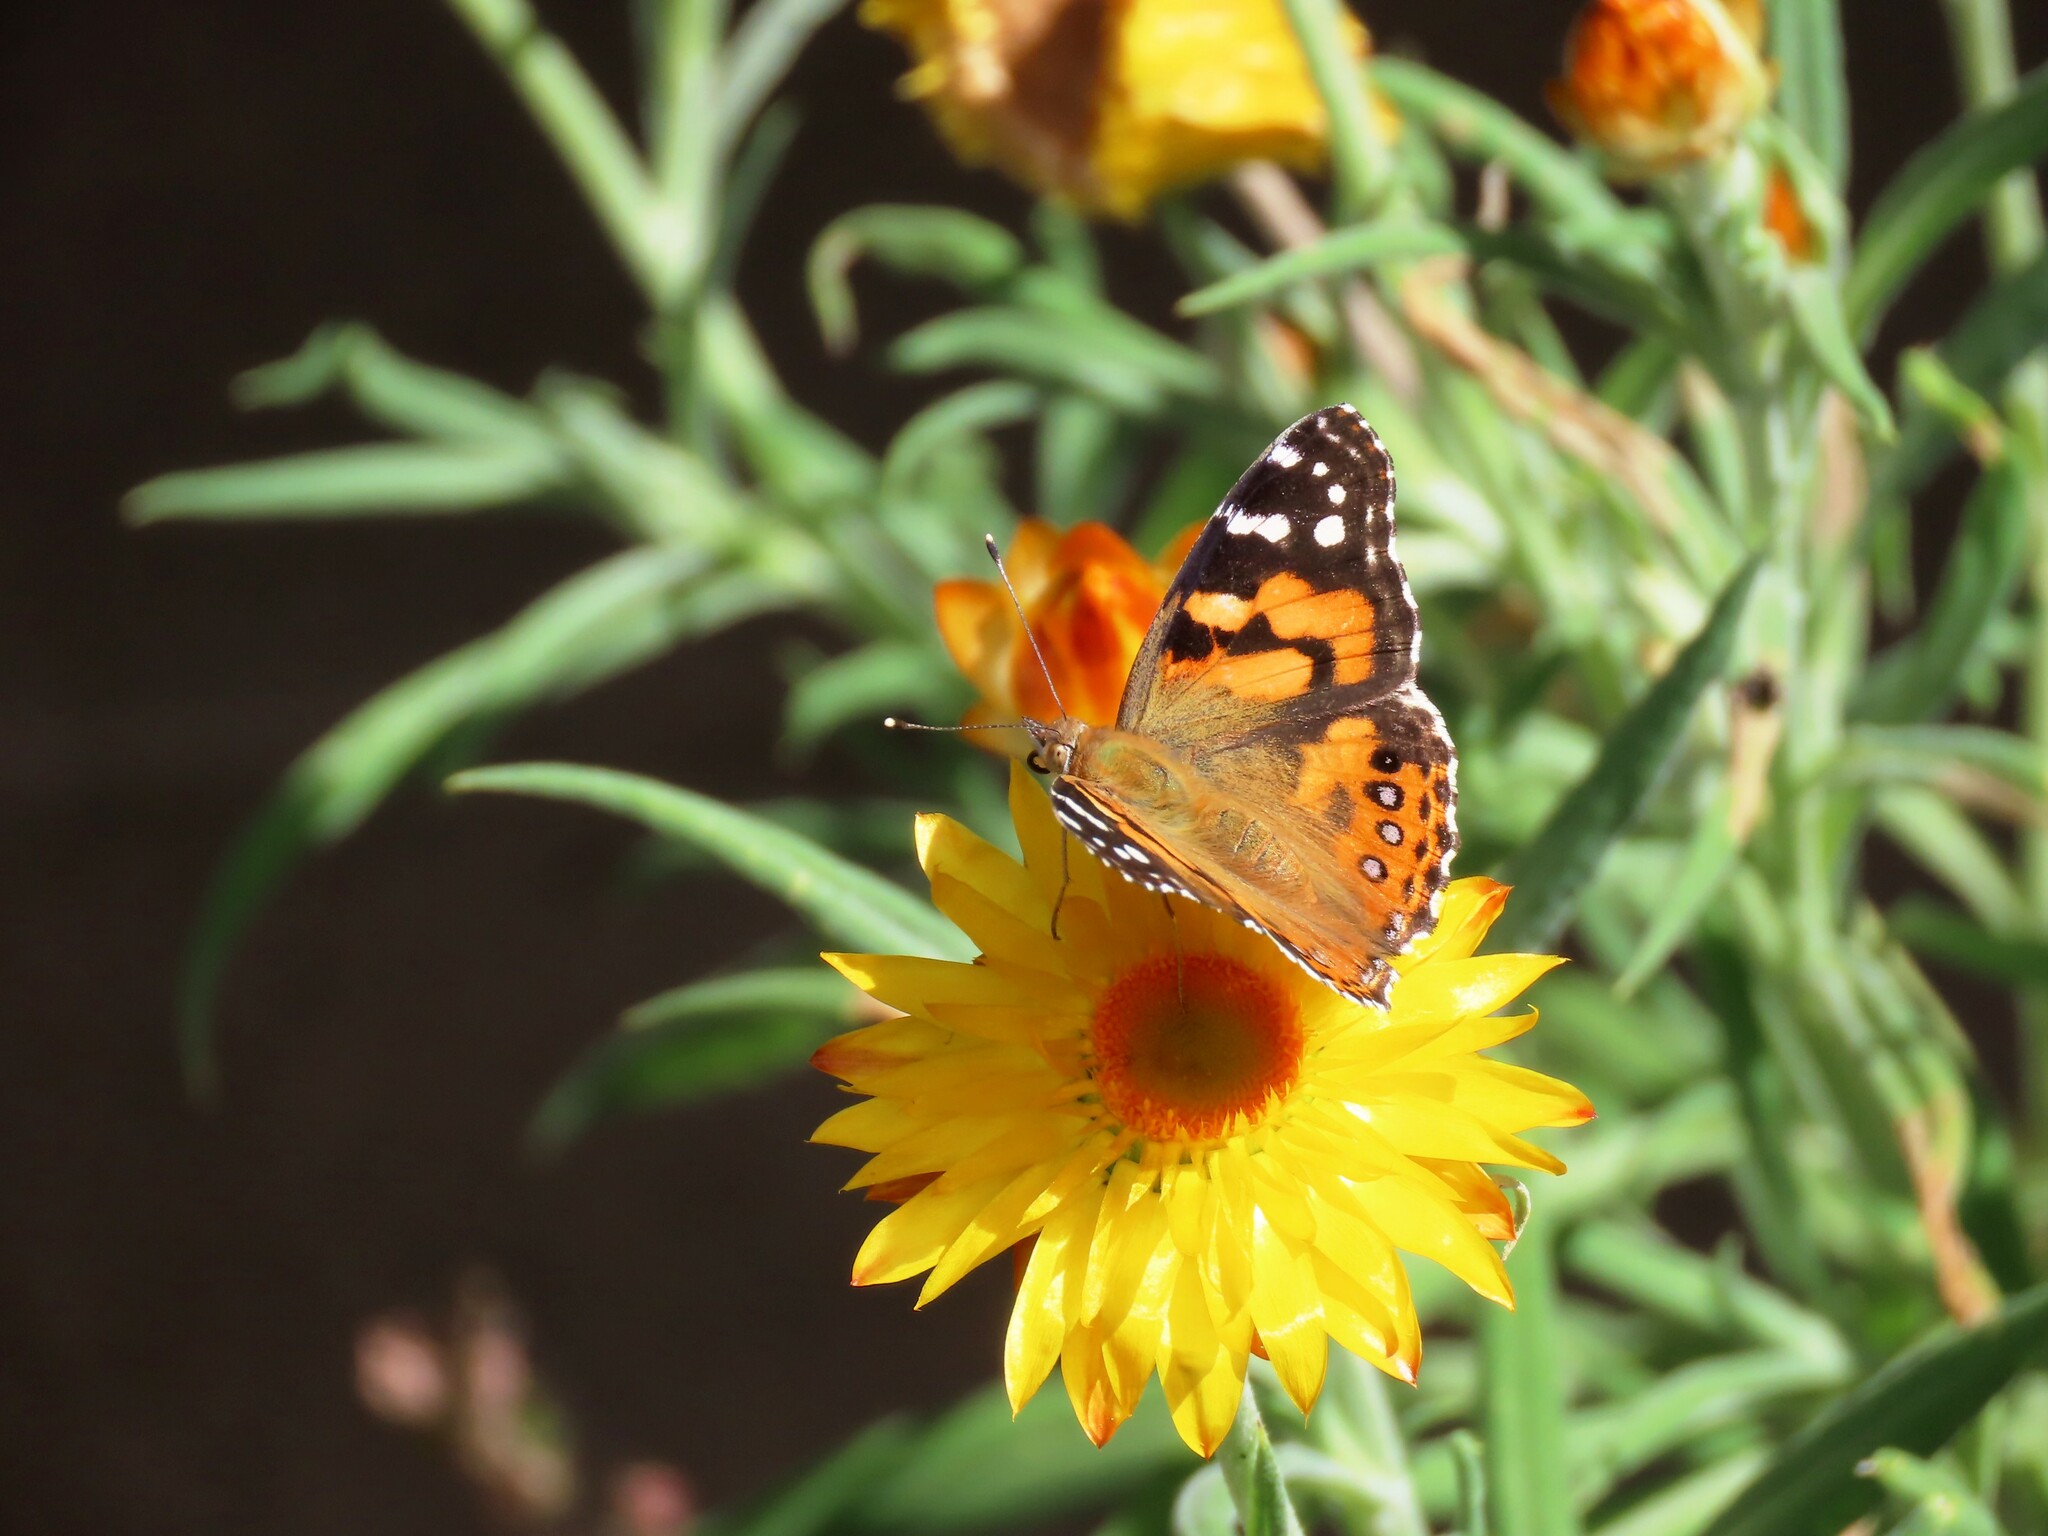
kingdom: Animalia
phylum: Arthropoda
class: Insecta
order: Lepidoptera
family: Nymphalidae
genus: Vanessa
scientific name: Vanessa kershawi
